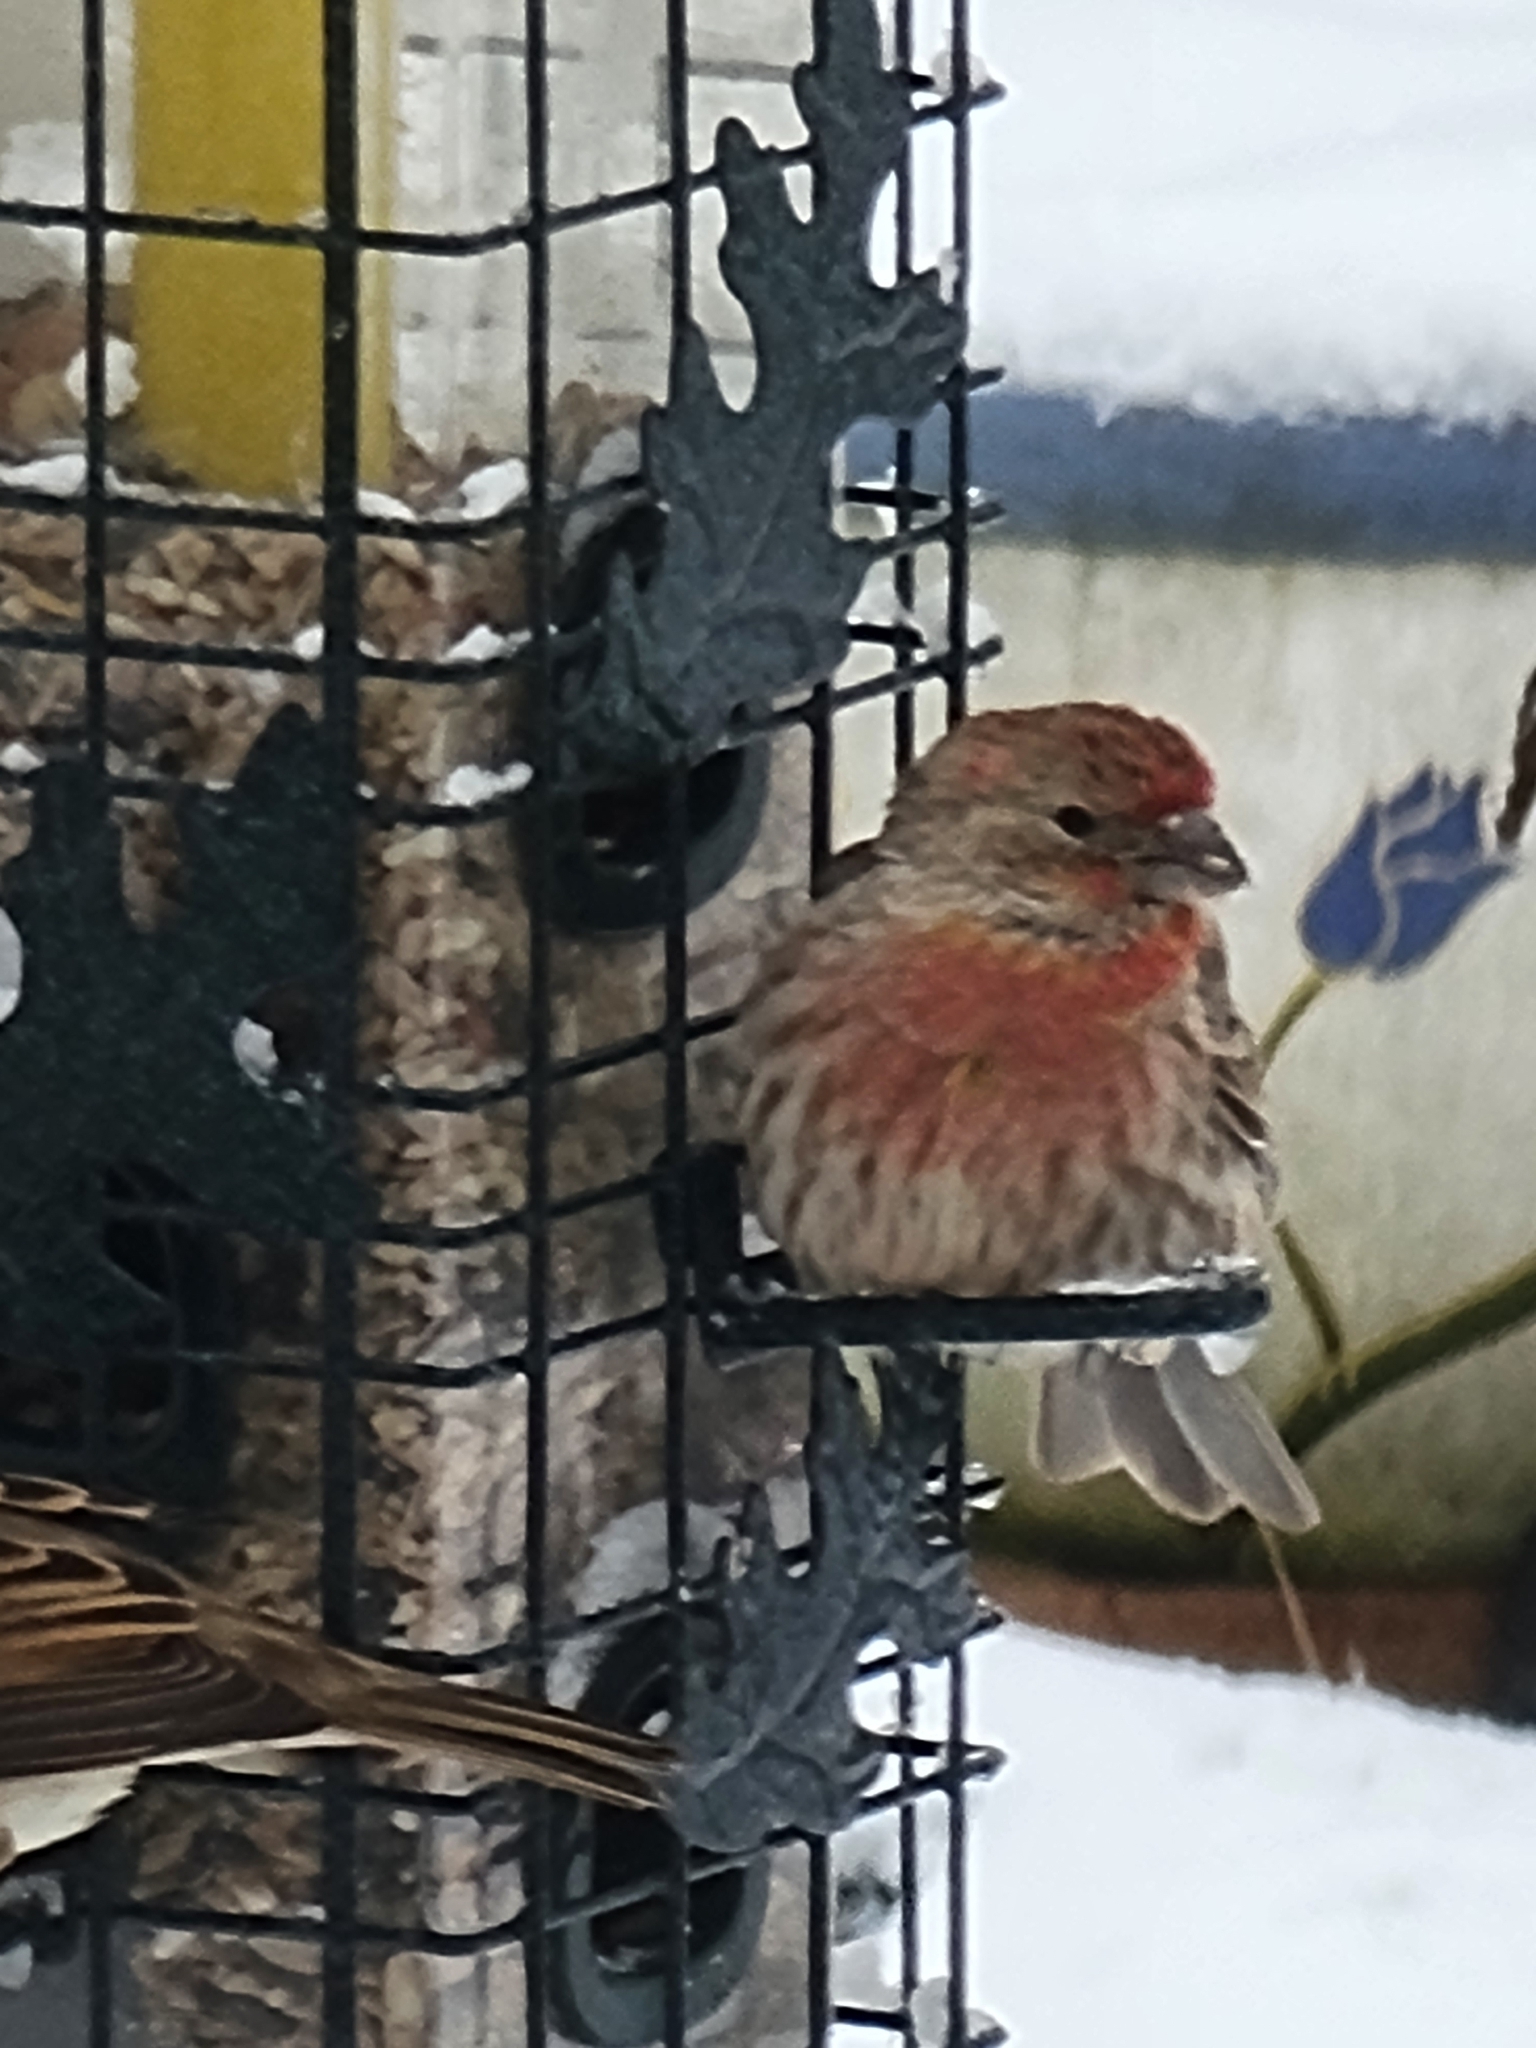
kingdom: Animalia
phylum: Chordata
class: Aves
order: Passeriformes
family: Fringillidae
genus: Haemorhous
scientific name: Haemorhous mexicanus
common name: House finch
